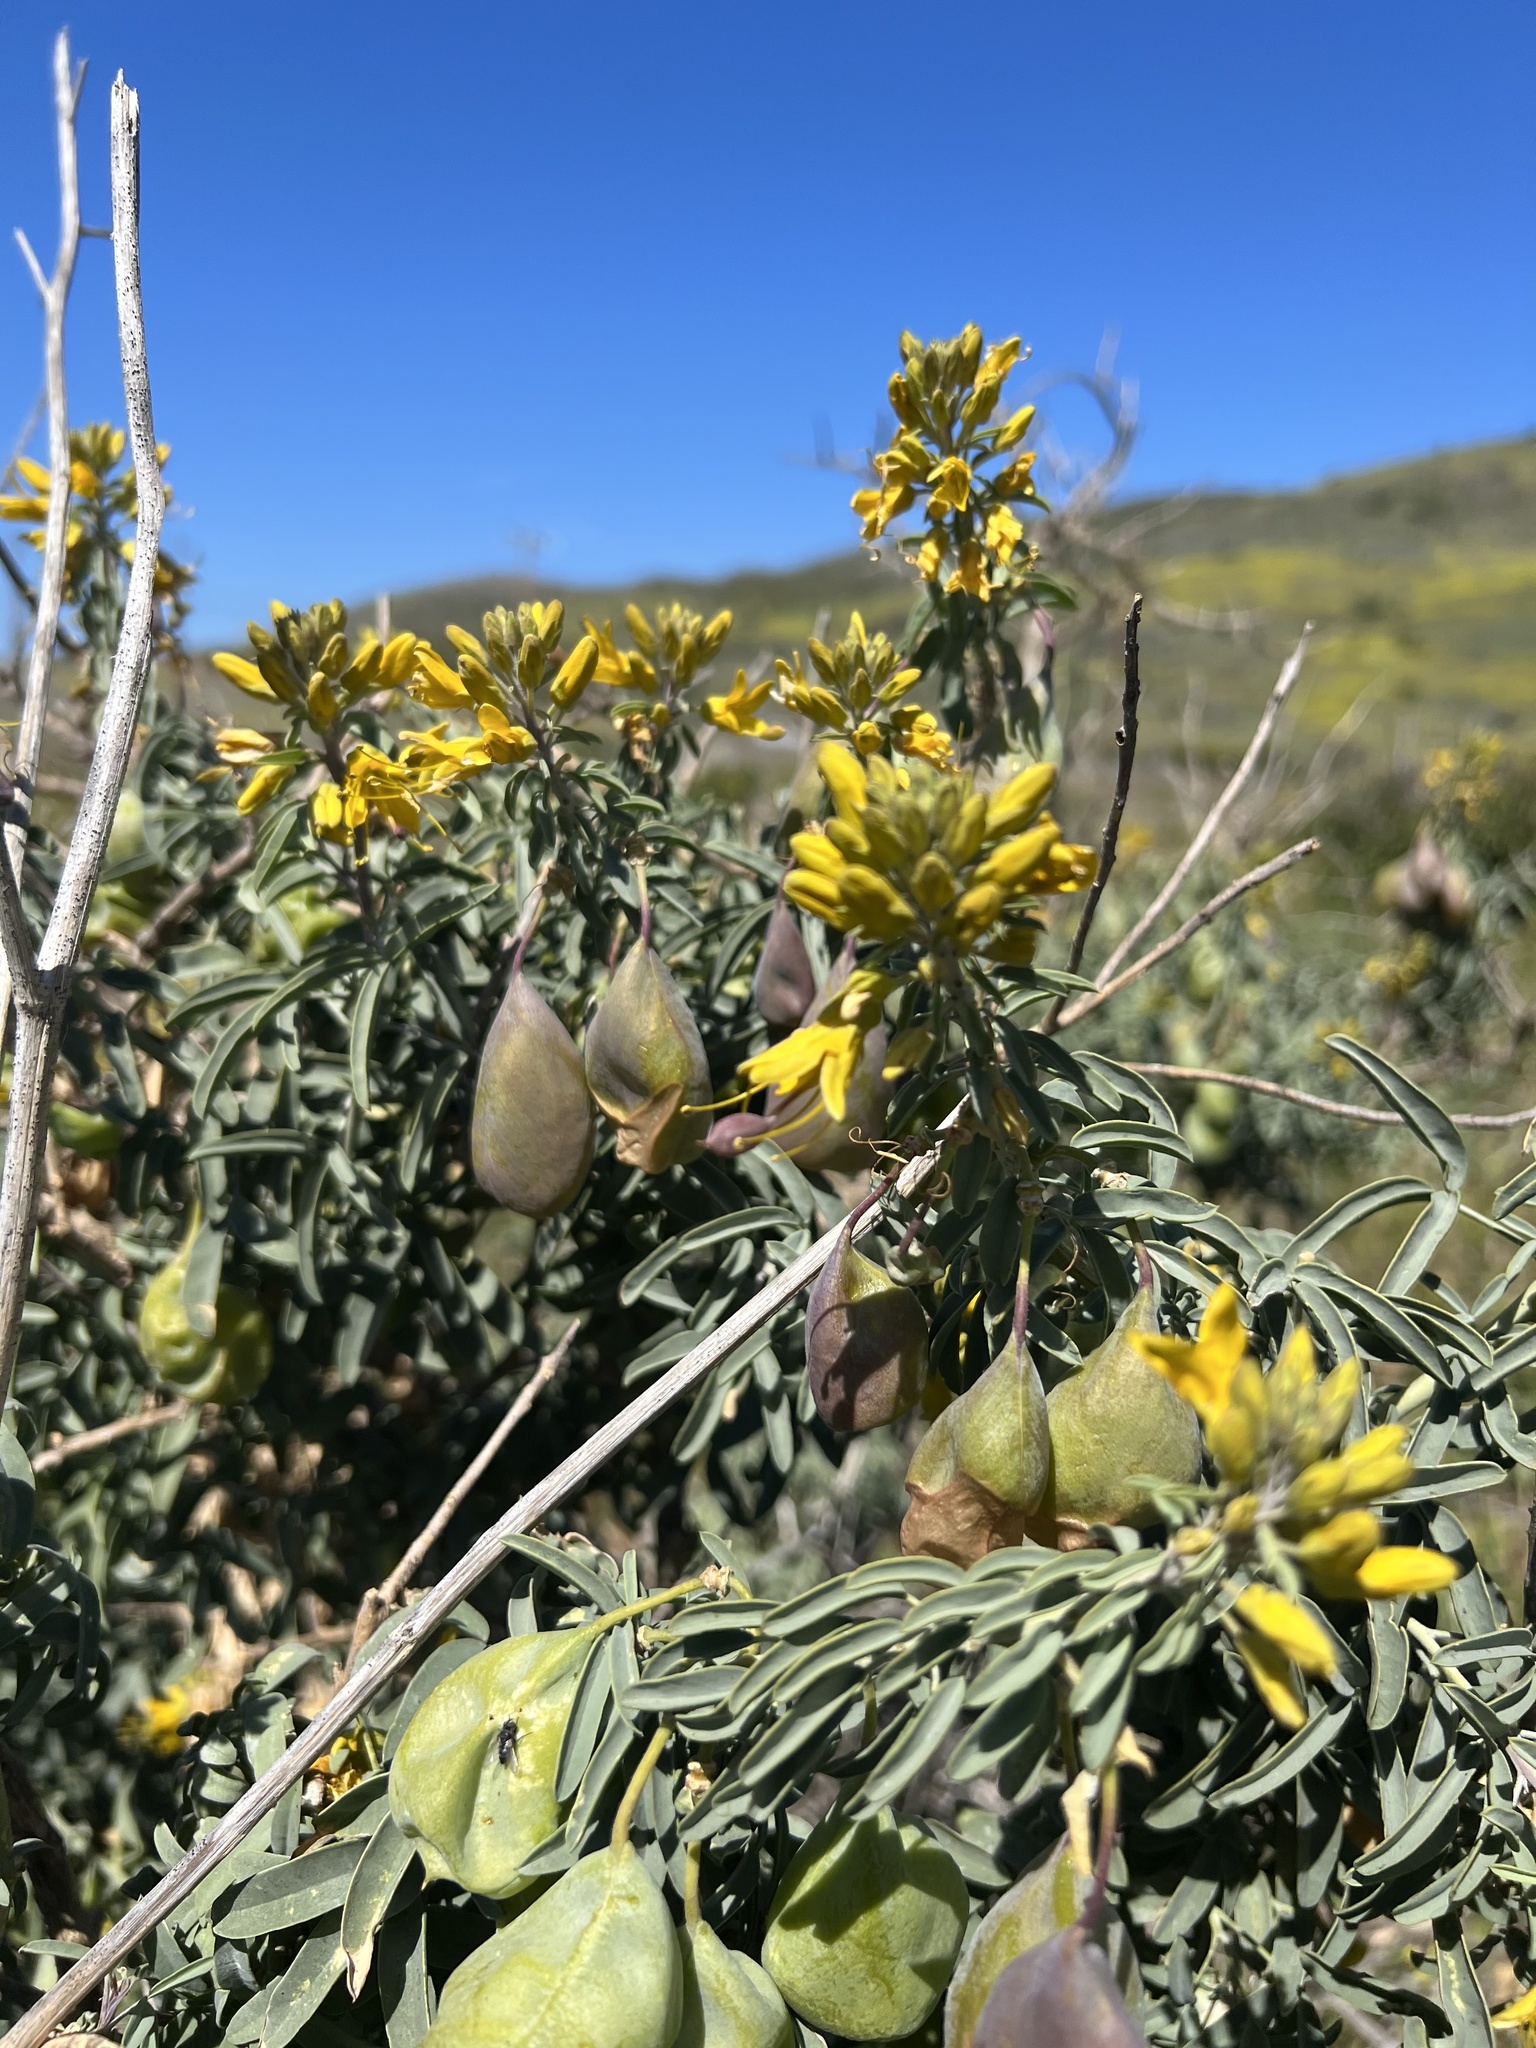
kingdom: Plantae
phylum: Tracheophyta
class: Magnoliopsida
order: Brassicales
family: Cleomaceae
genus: Cleomella
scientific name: Cleomella arborea
